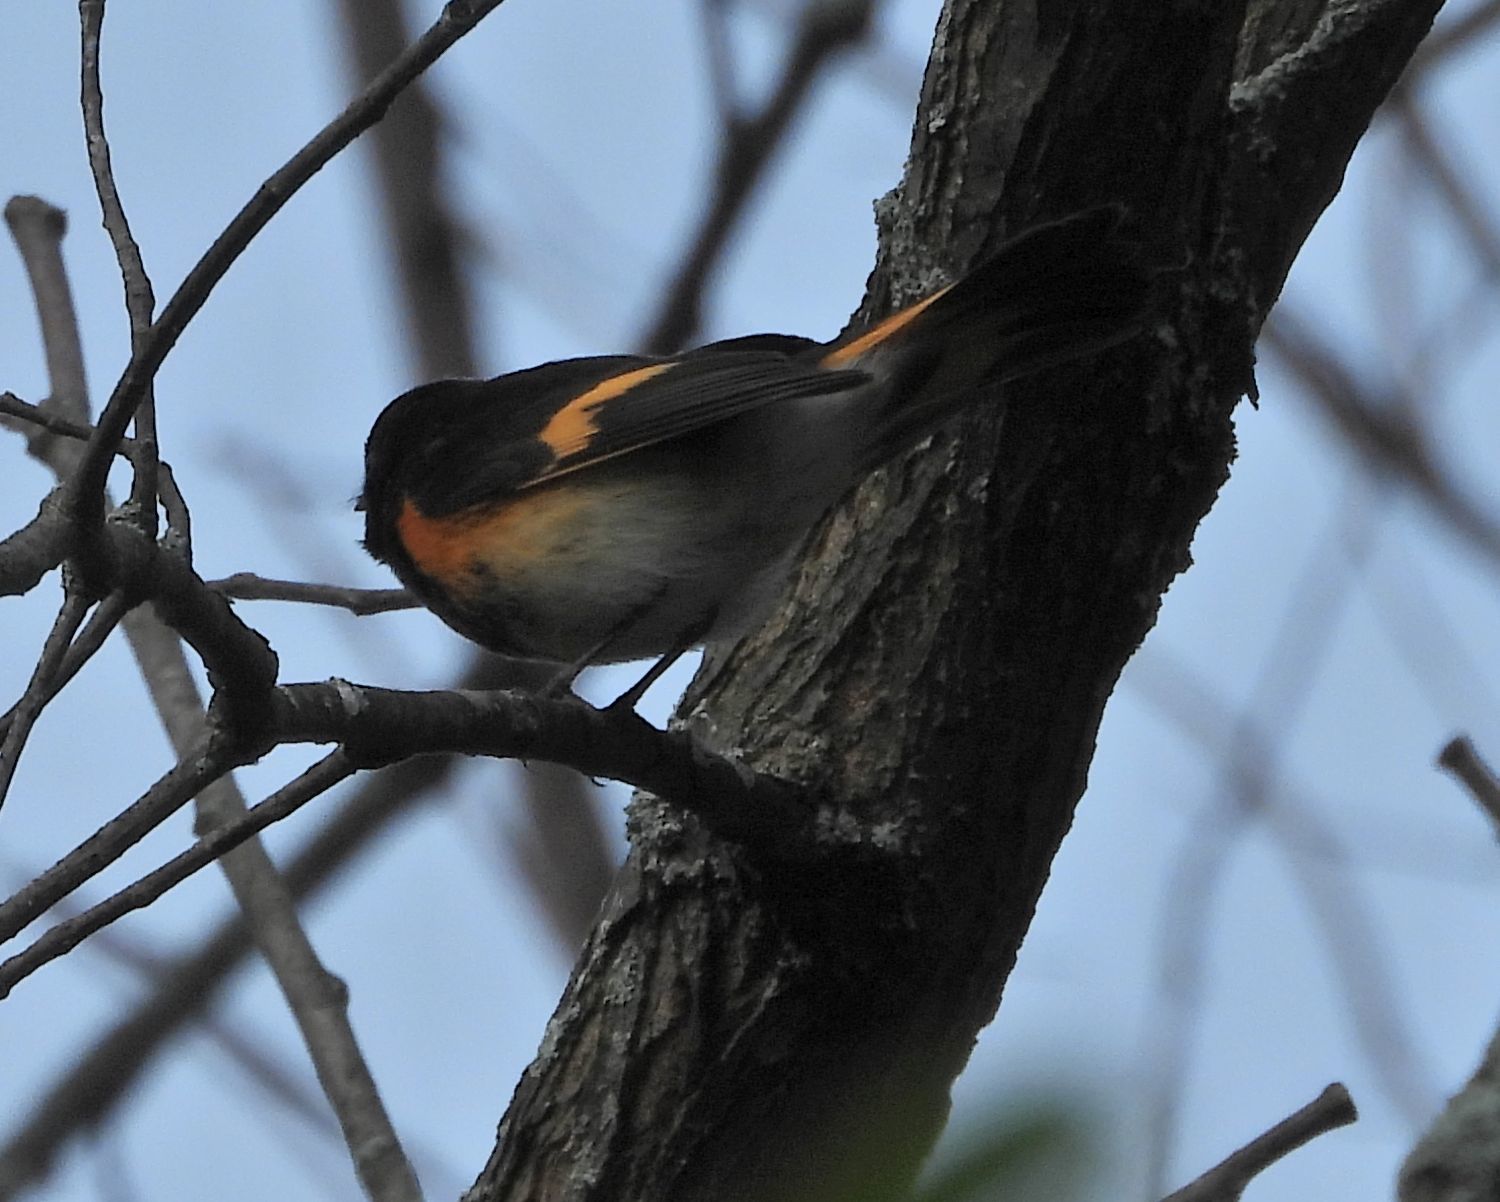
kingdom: Animalia
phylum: Chordata
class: Aves
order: Passeriformes
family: Parulidae
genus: Setophaga
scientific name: Setophaga ruticilla
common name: American redstart
